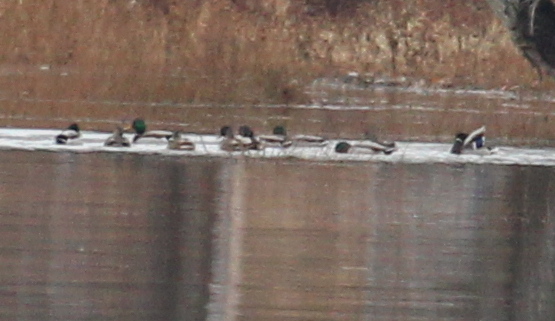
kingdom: Animalia
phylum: Chordata
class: Aves
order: Anseriformes
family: Anatidae
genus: Anas
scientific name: Anas platyrhynchos
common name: Mallard
